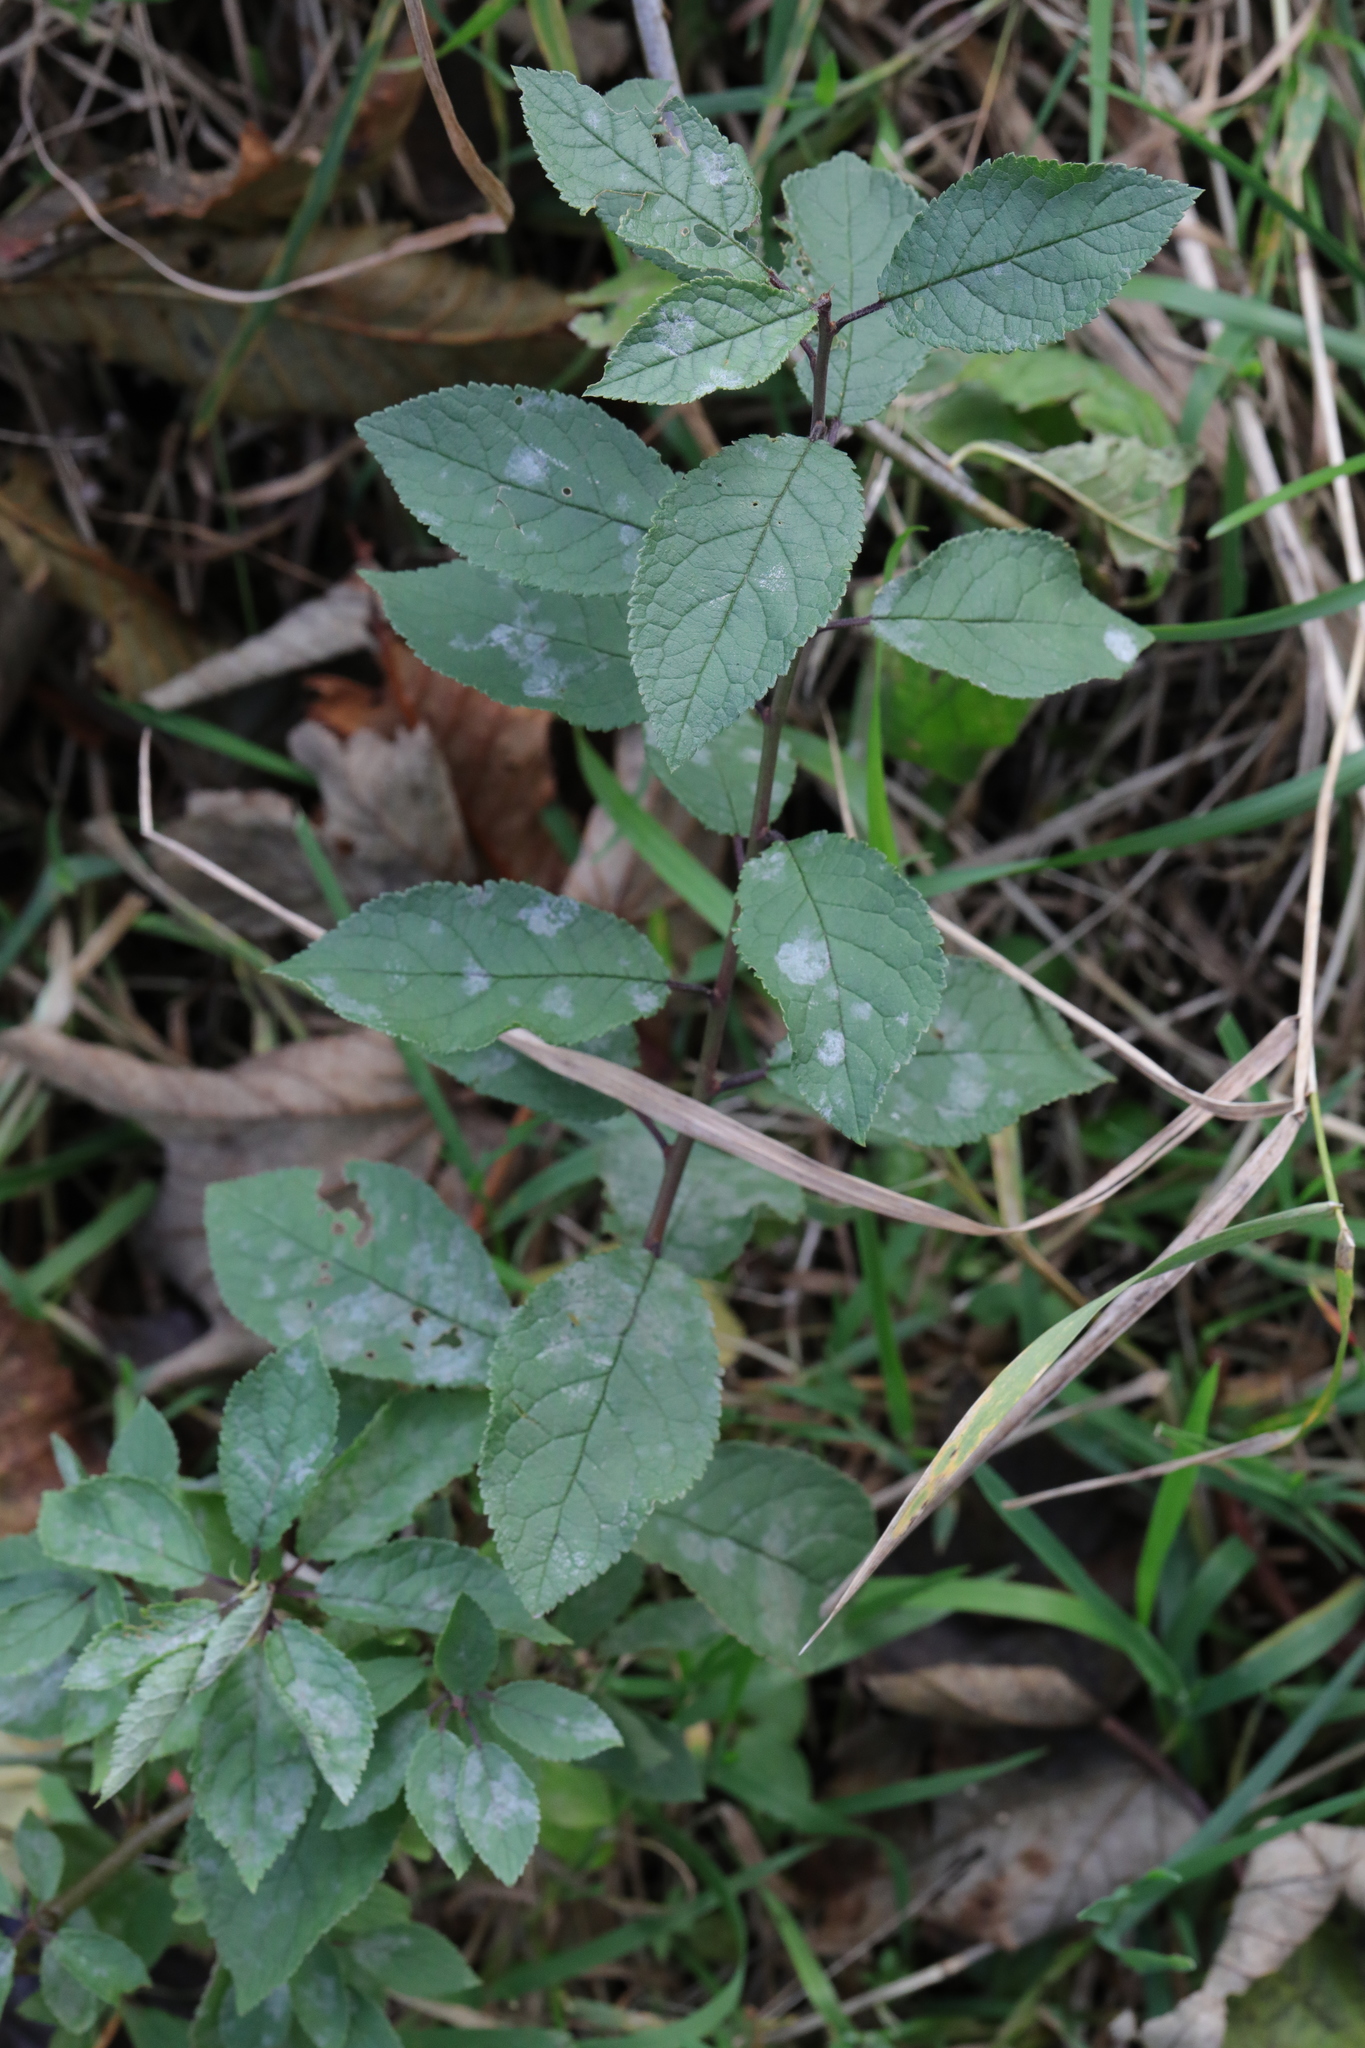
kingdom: Plantae
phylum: Tracheophyta
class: Magnoliopsida
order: Rosales
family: Rosaceae
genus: Prunus
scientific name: Prunus spinosa
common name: Blackthorn
